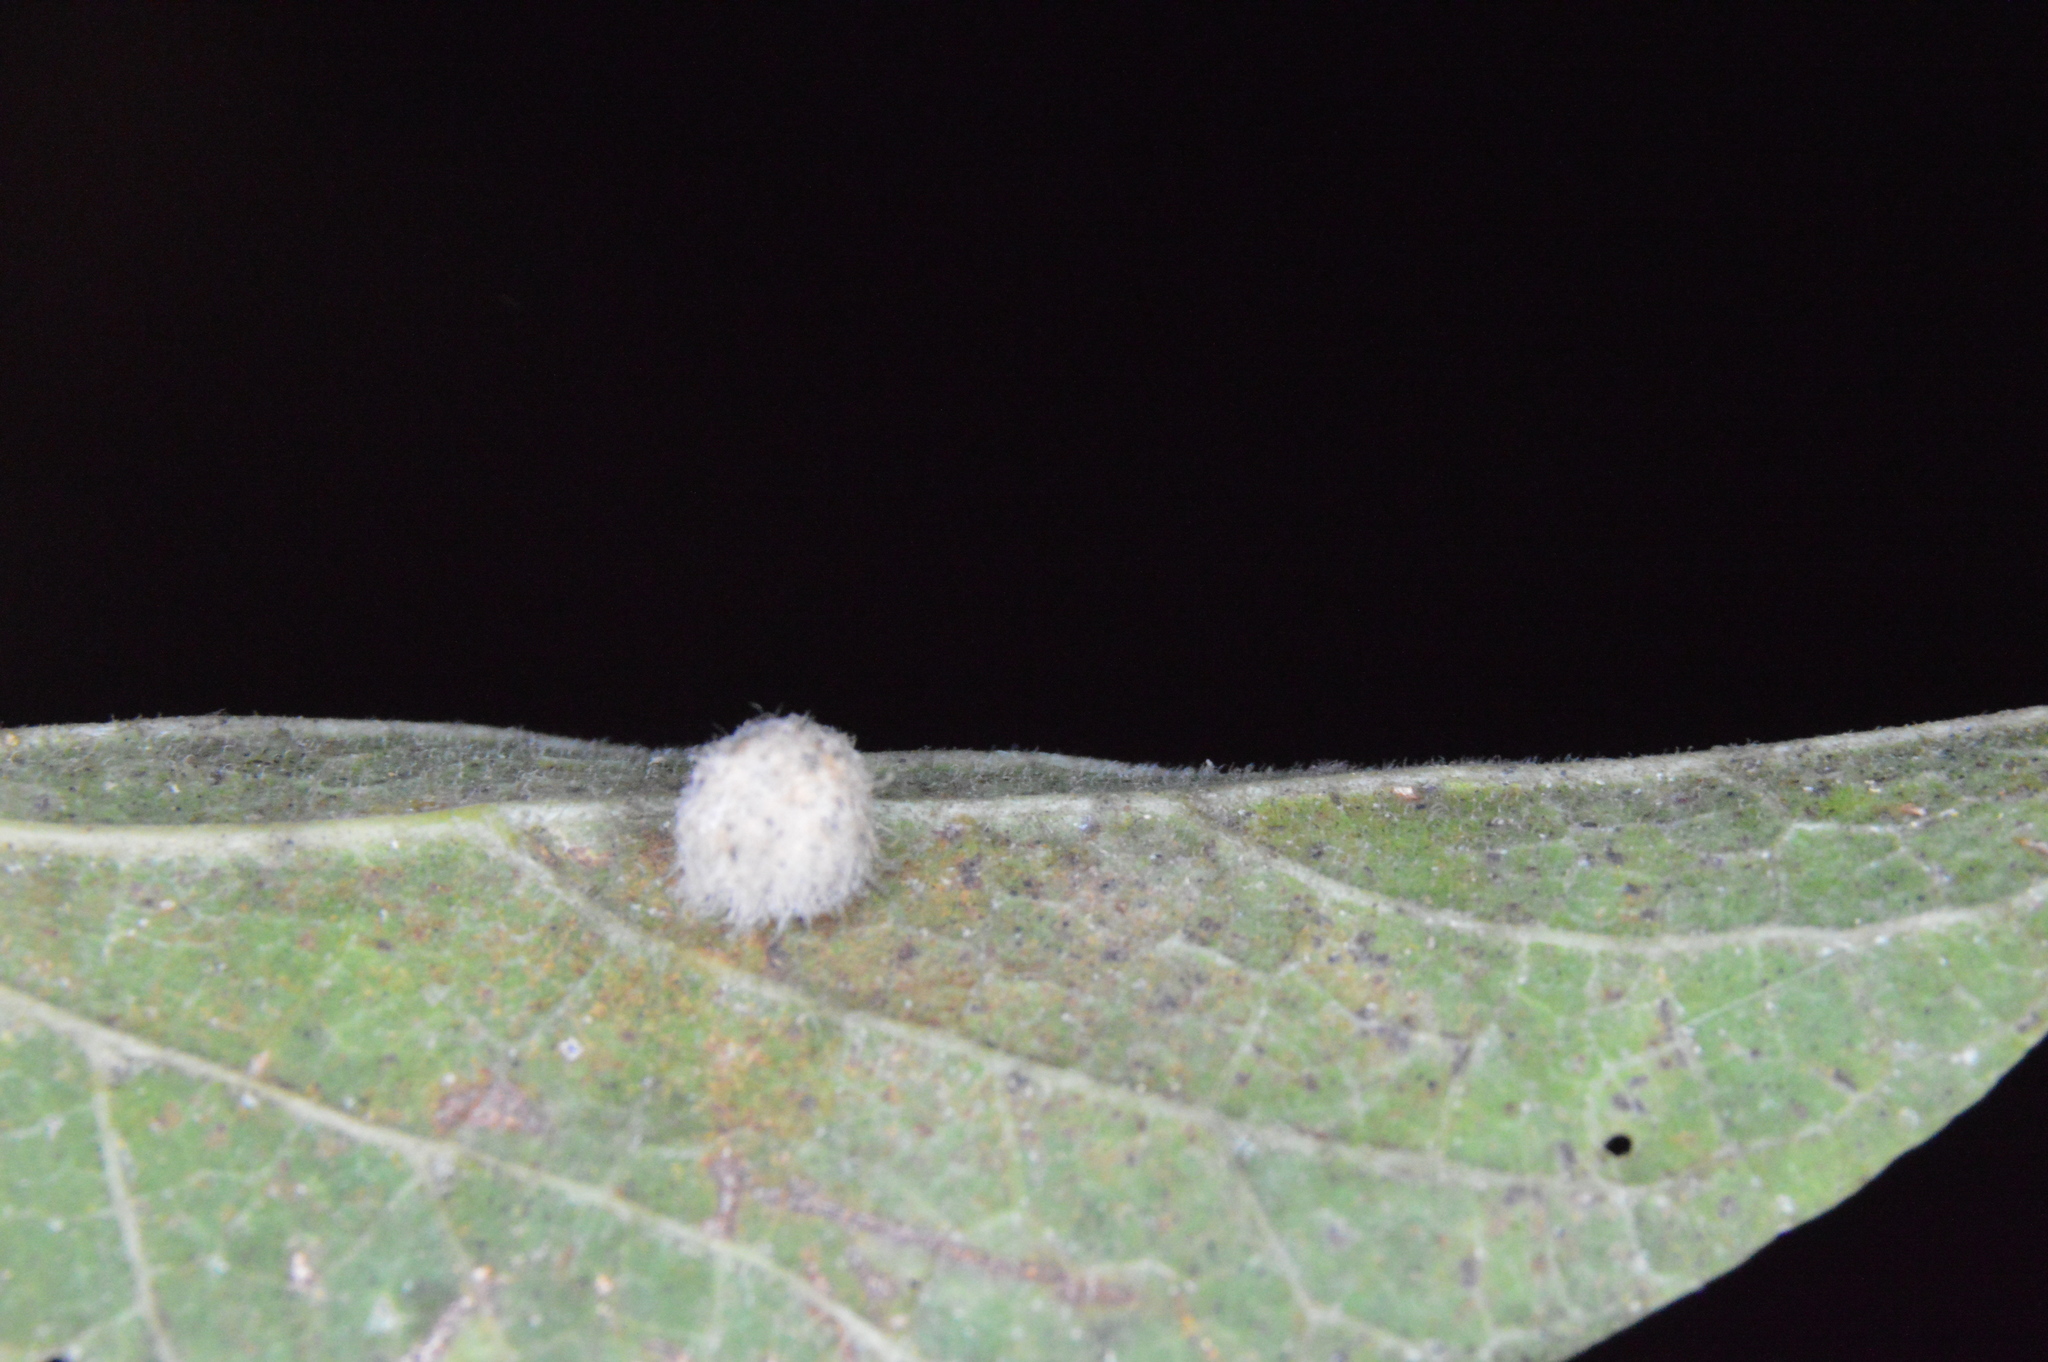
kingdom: Animalia
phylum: Arthropoda
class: Insecta
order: Diptera
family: Cecidomyiidae
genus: Celticecis
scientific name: Celticecis pubescens
